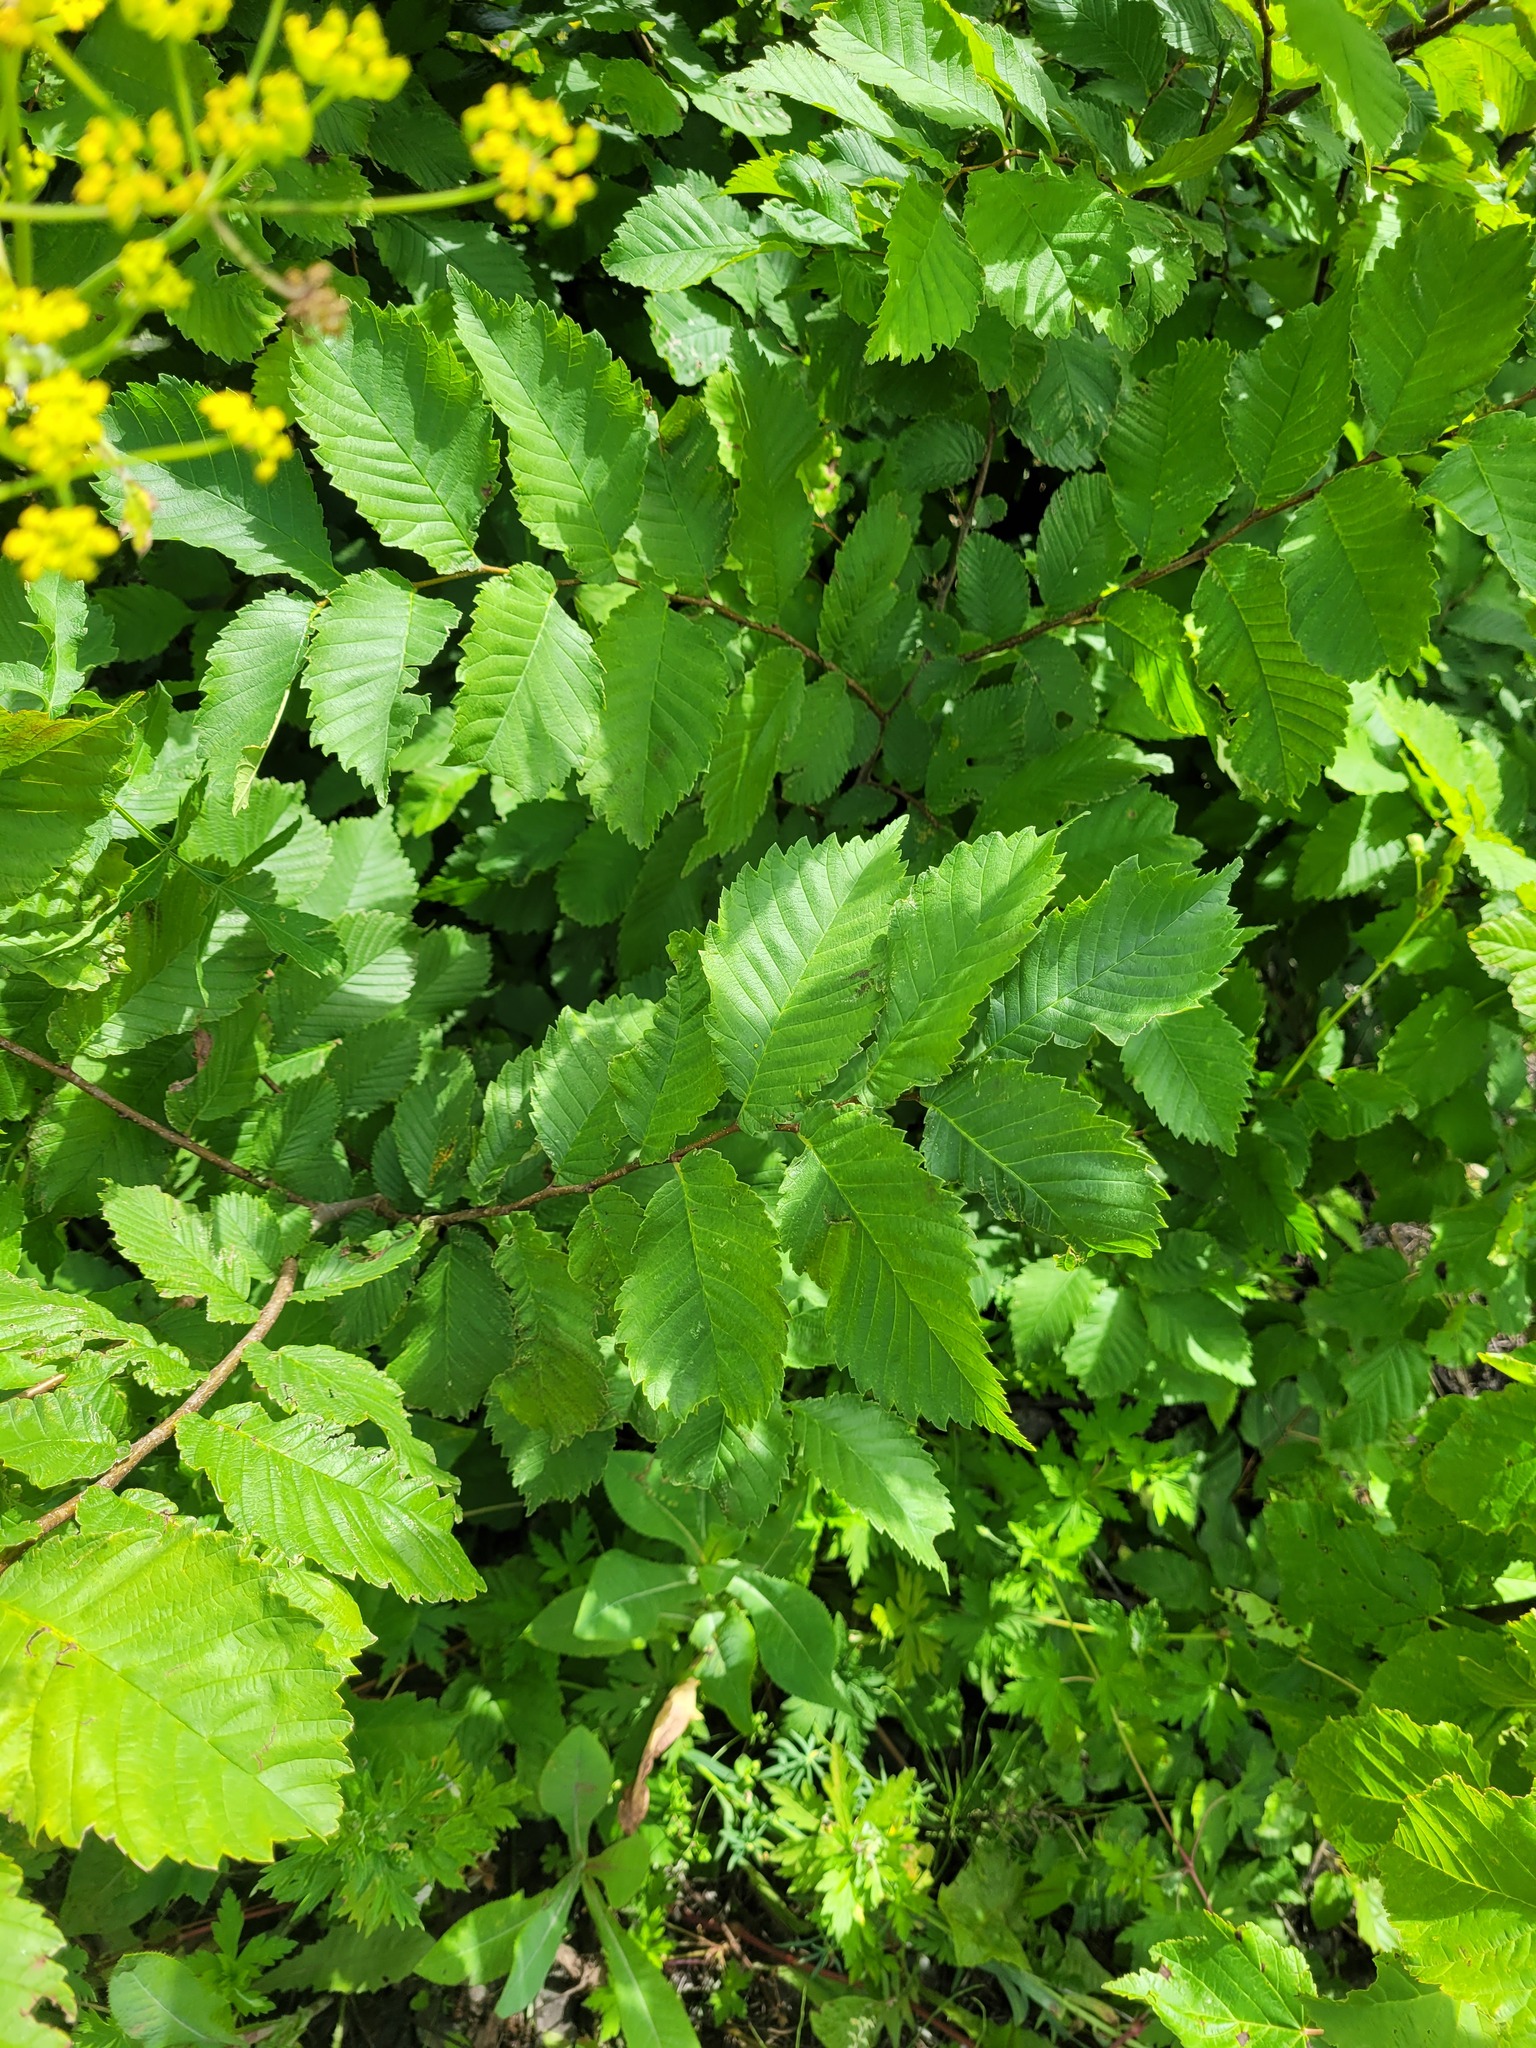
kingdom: Plantae
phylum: Tracheophyta
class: Magnoliopsida
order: Rosales
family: Ulmaceae
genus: Ulmus
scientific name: Ulmus laevis
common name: European white-elm
